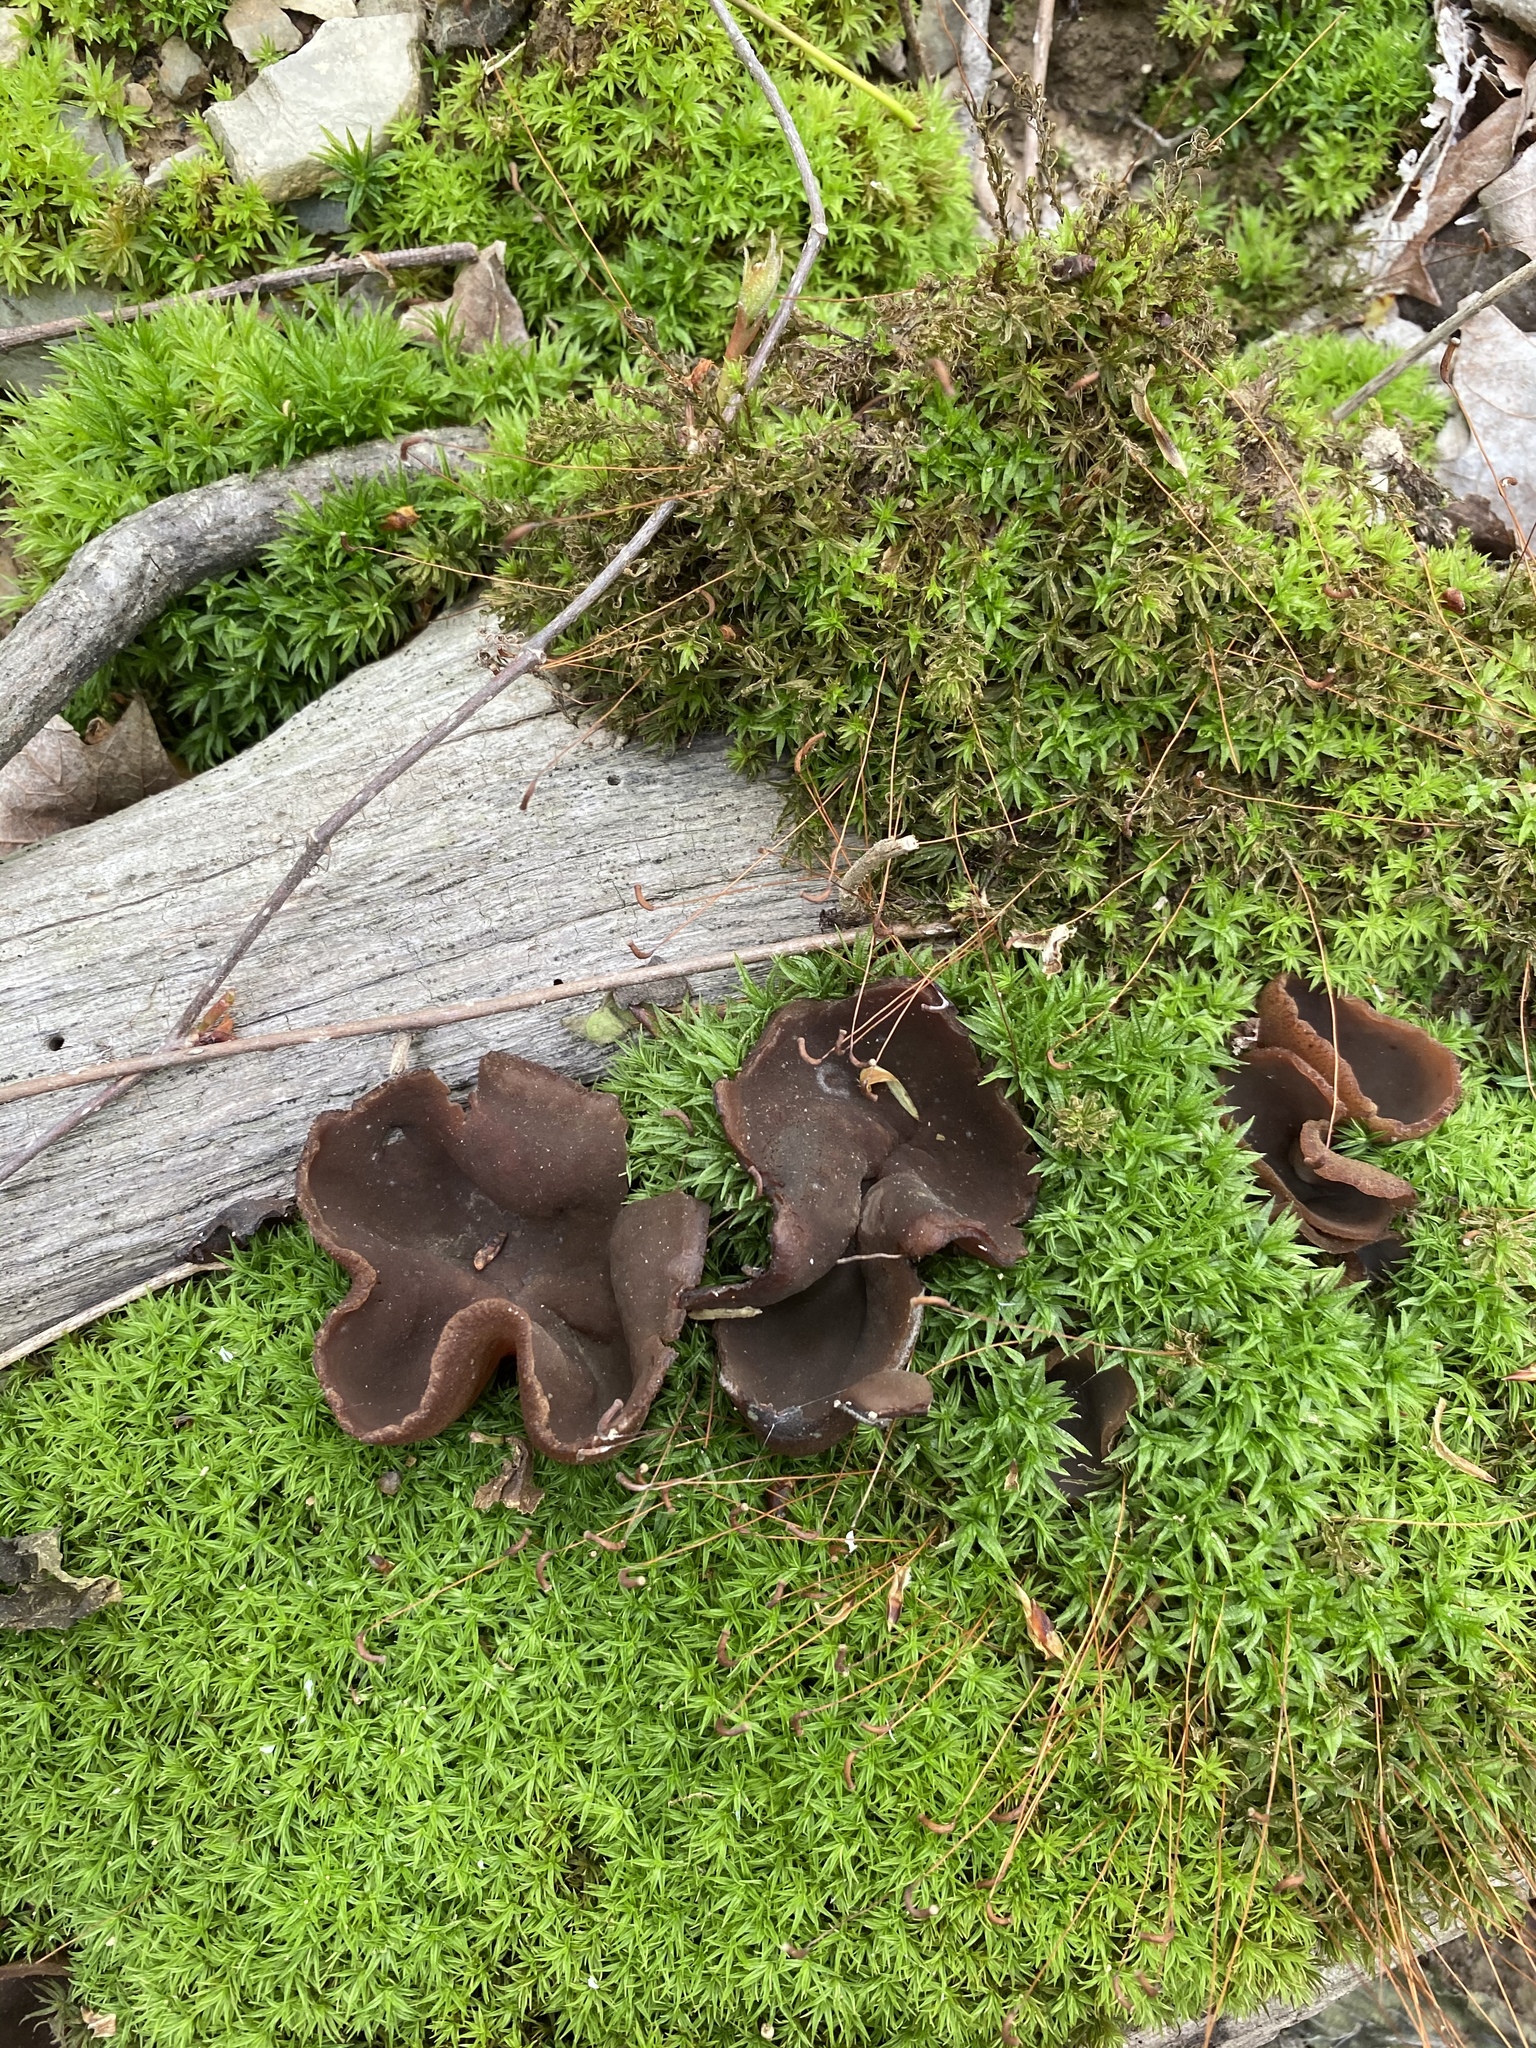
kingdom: Fungi
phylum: Ascomycota
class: Pezizomycetes
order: Pezizales
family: Pezizaceae
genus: Phylloscypha
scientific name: Phylloscypha phyllogena
